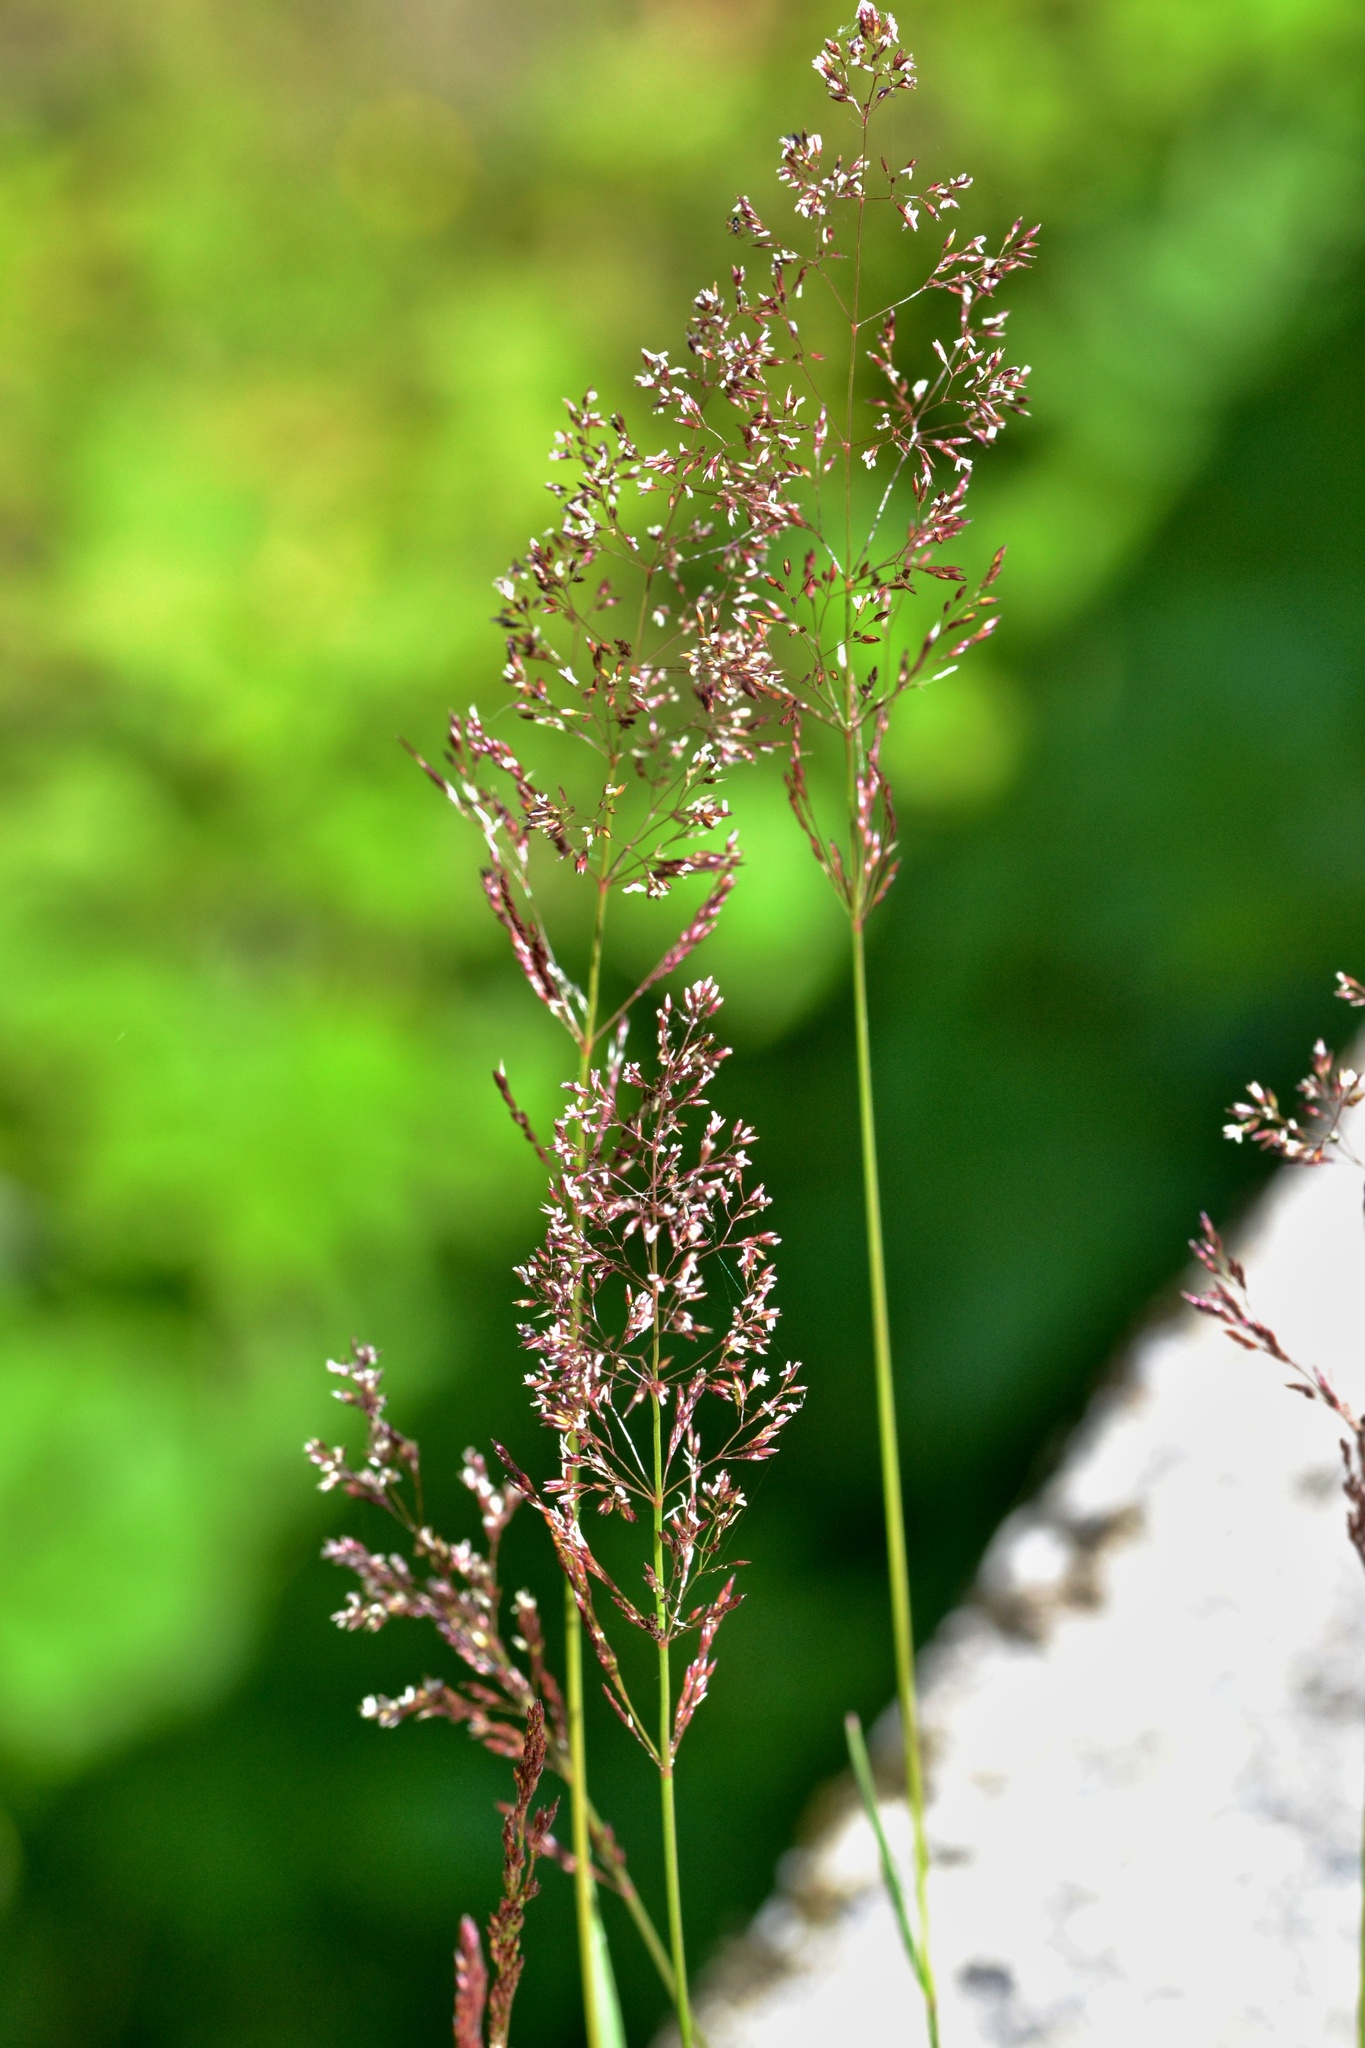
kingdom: Plantae
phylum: Tracheophyta
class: Liliopsida
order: Poales
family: Poaceae
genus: Agrostis
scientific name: Agrostis capillaris
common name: Colonial bentgrass
